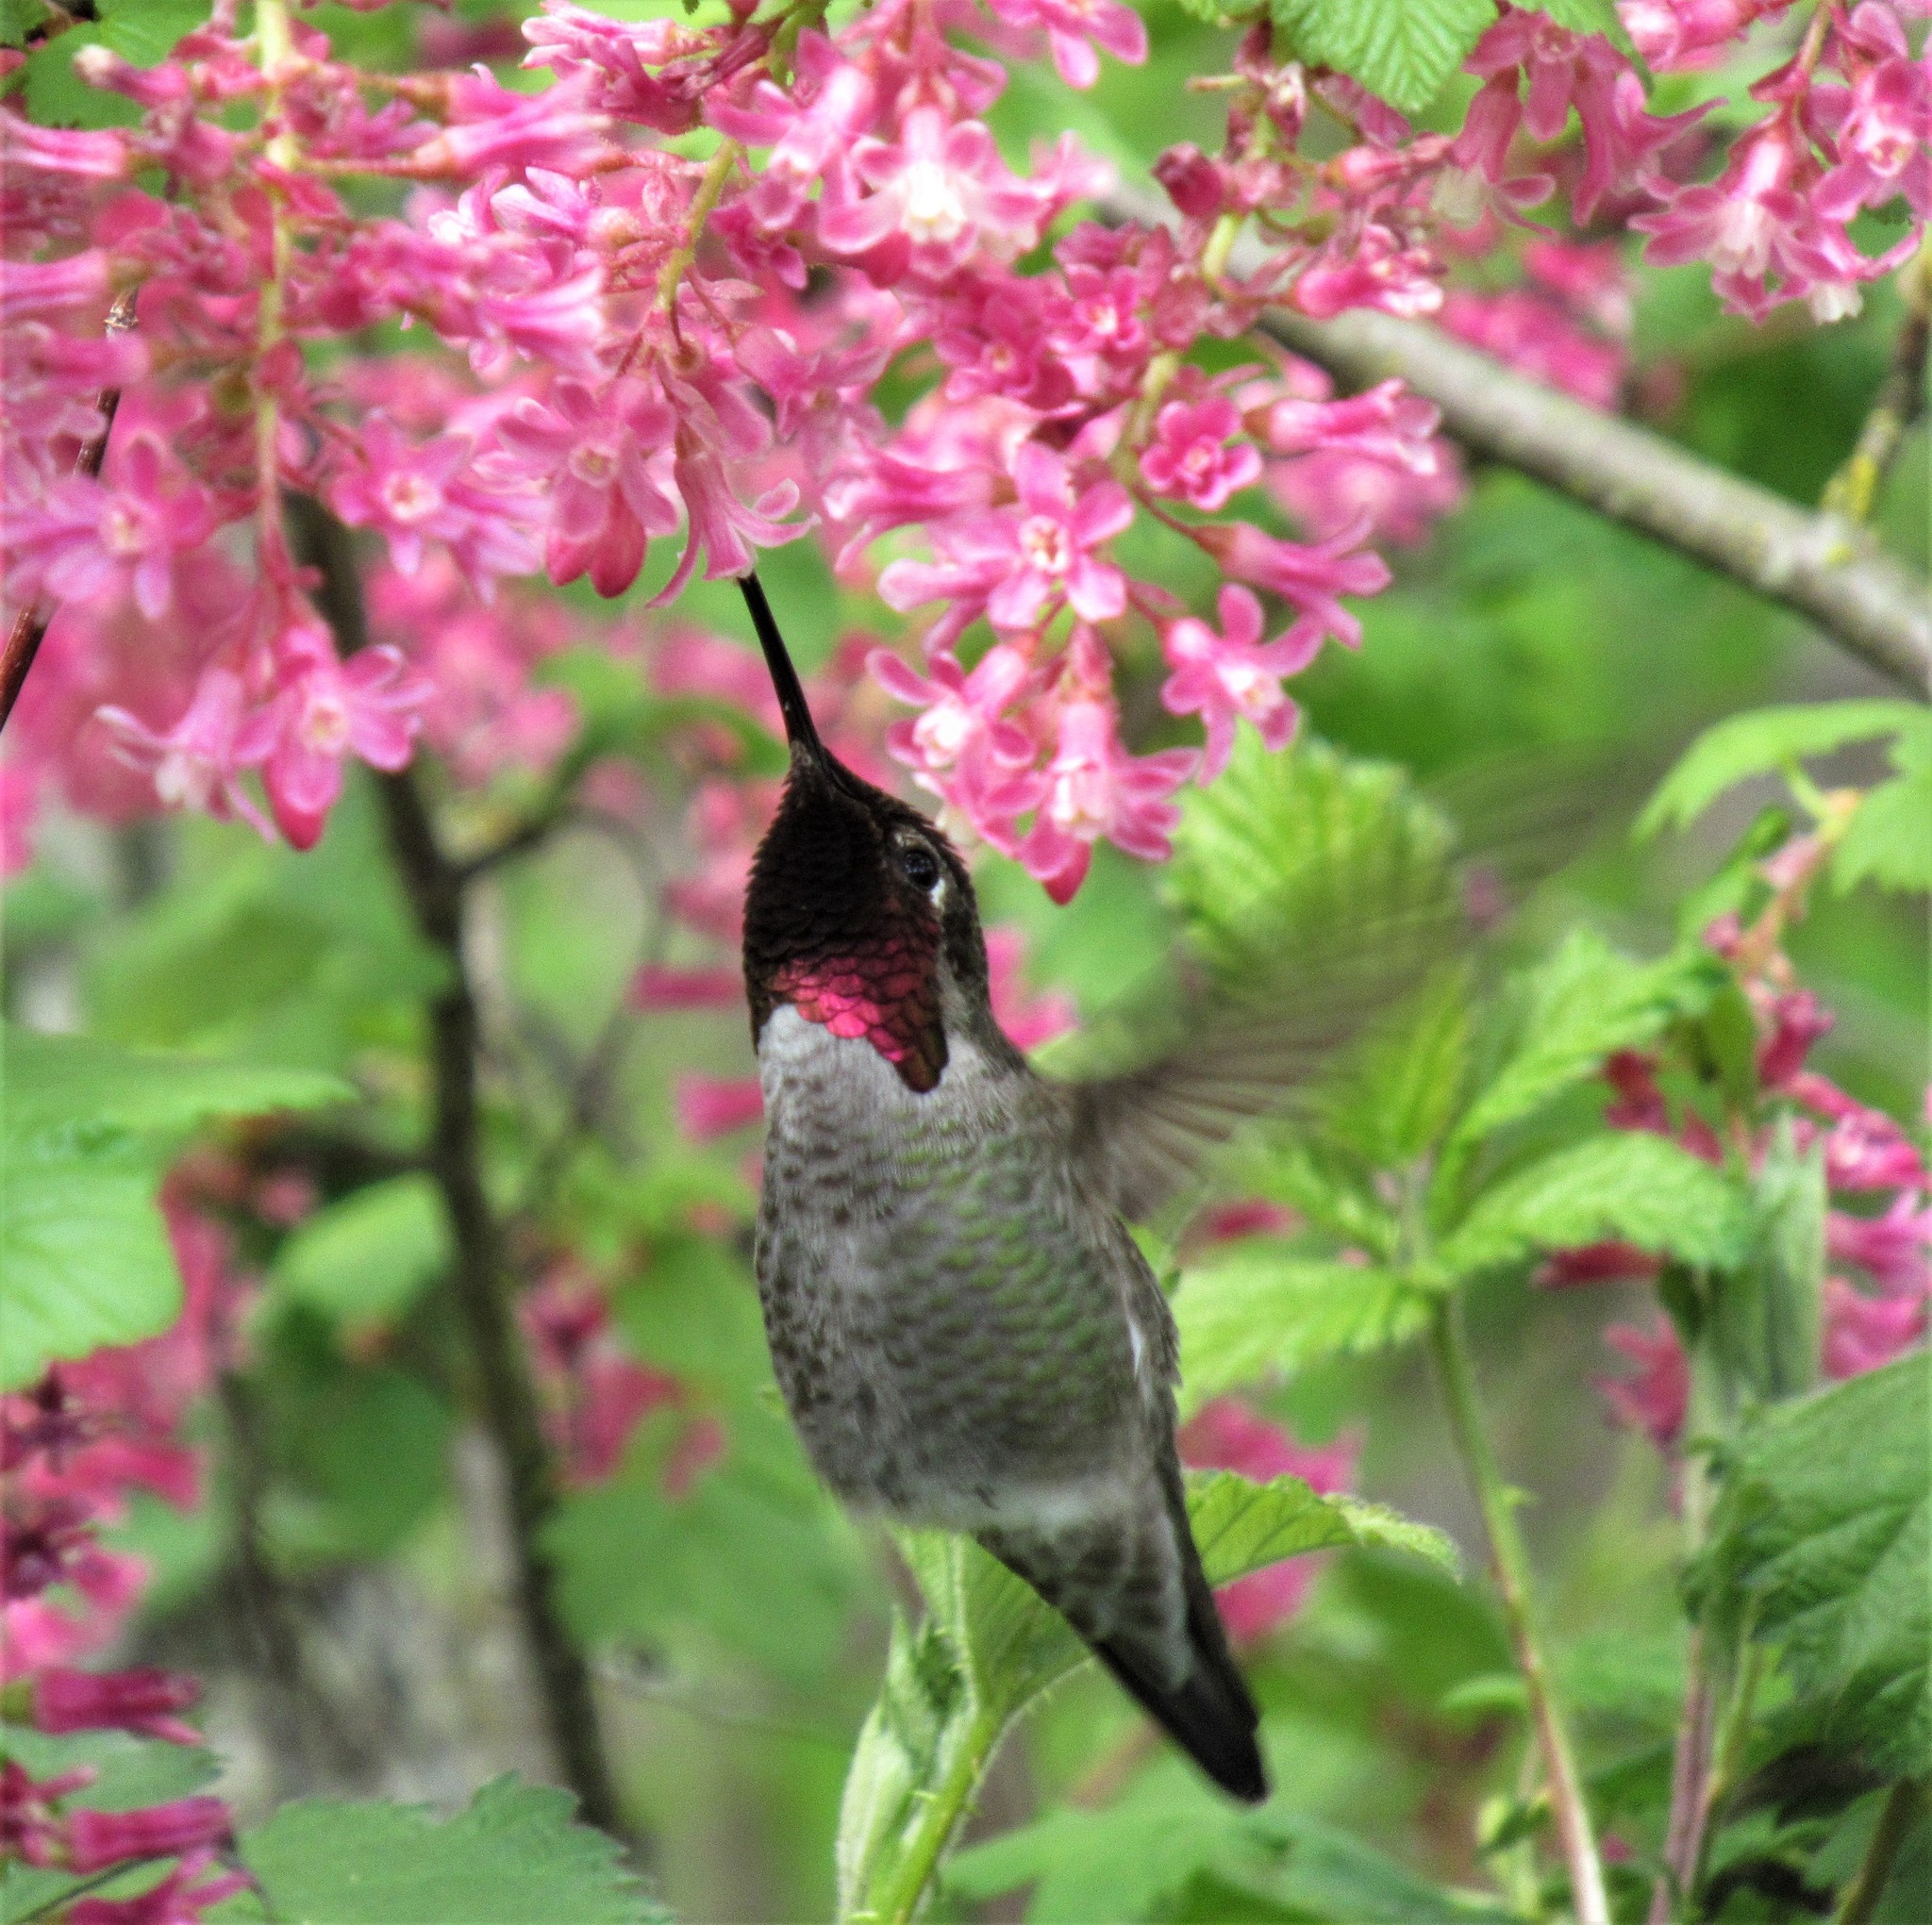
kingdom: Animalia
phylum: Chordata
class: Aves
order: Apodiformes
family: Trochilidae
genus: Calypte
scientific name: Calypte anna
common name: Anna's hummingbird
